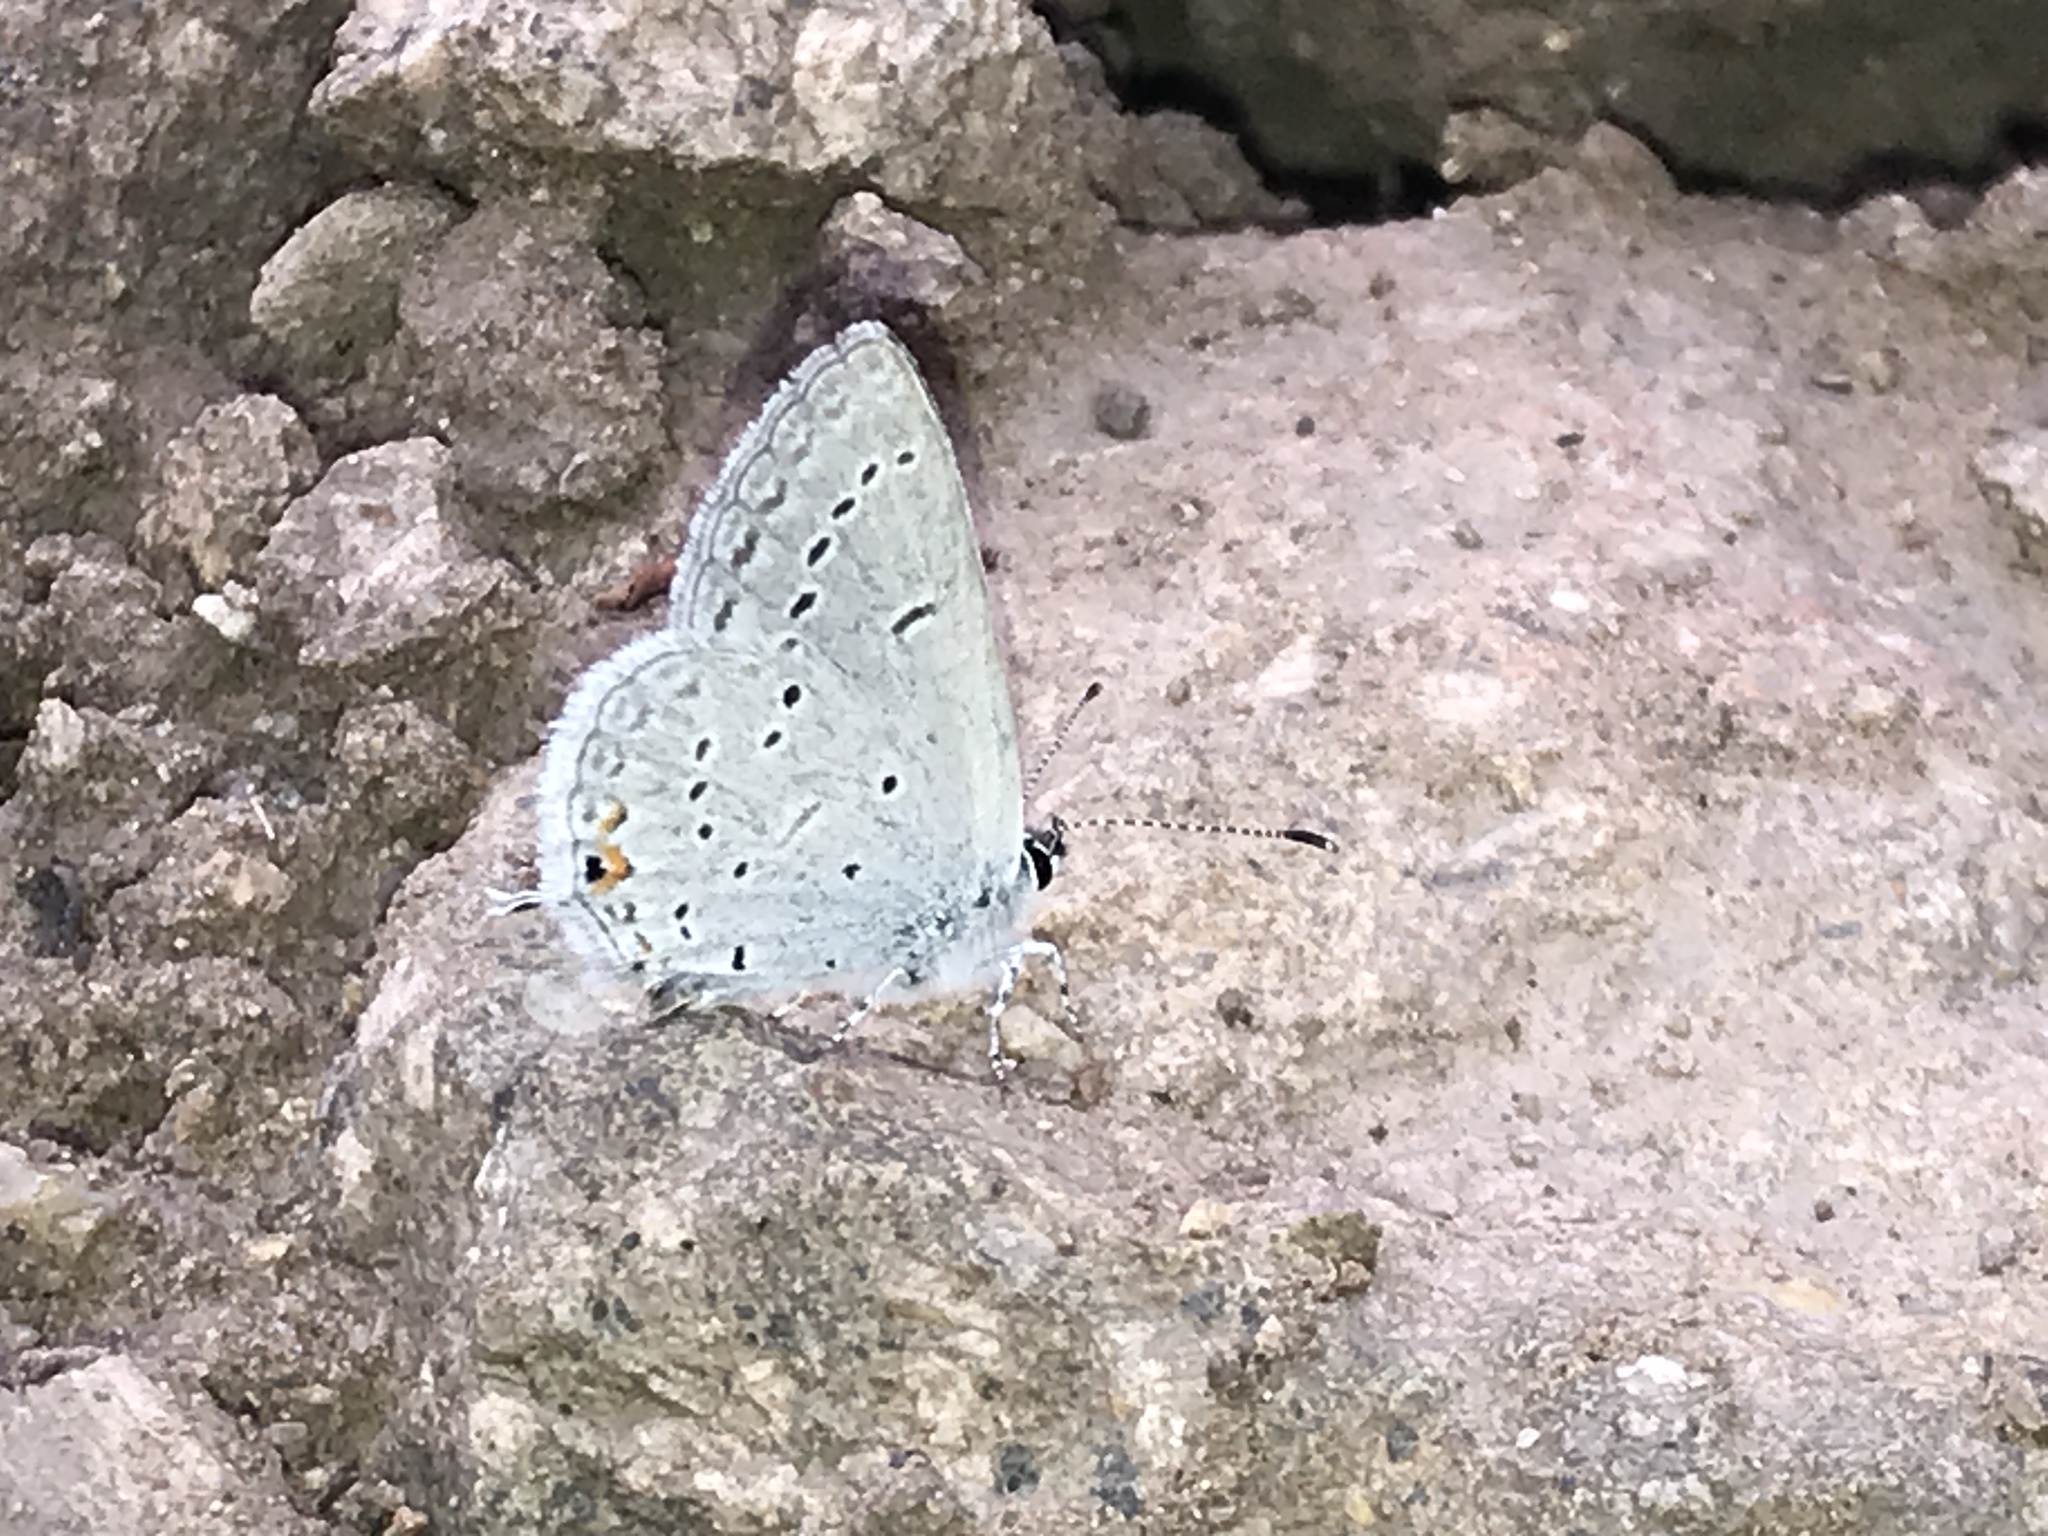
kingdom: Animalia
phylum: Arthropoda
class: Insecta
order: Lepidoptera
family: Lycaenidae
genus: Elkalyce
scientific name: Elkalyce amyntula
